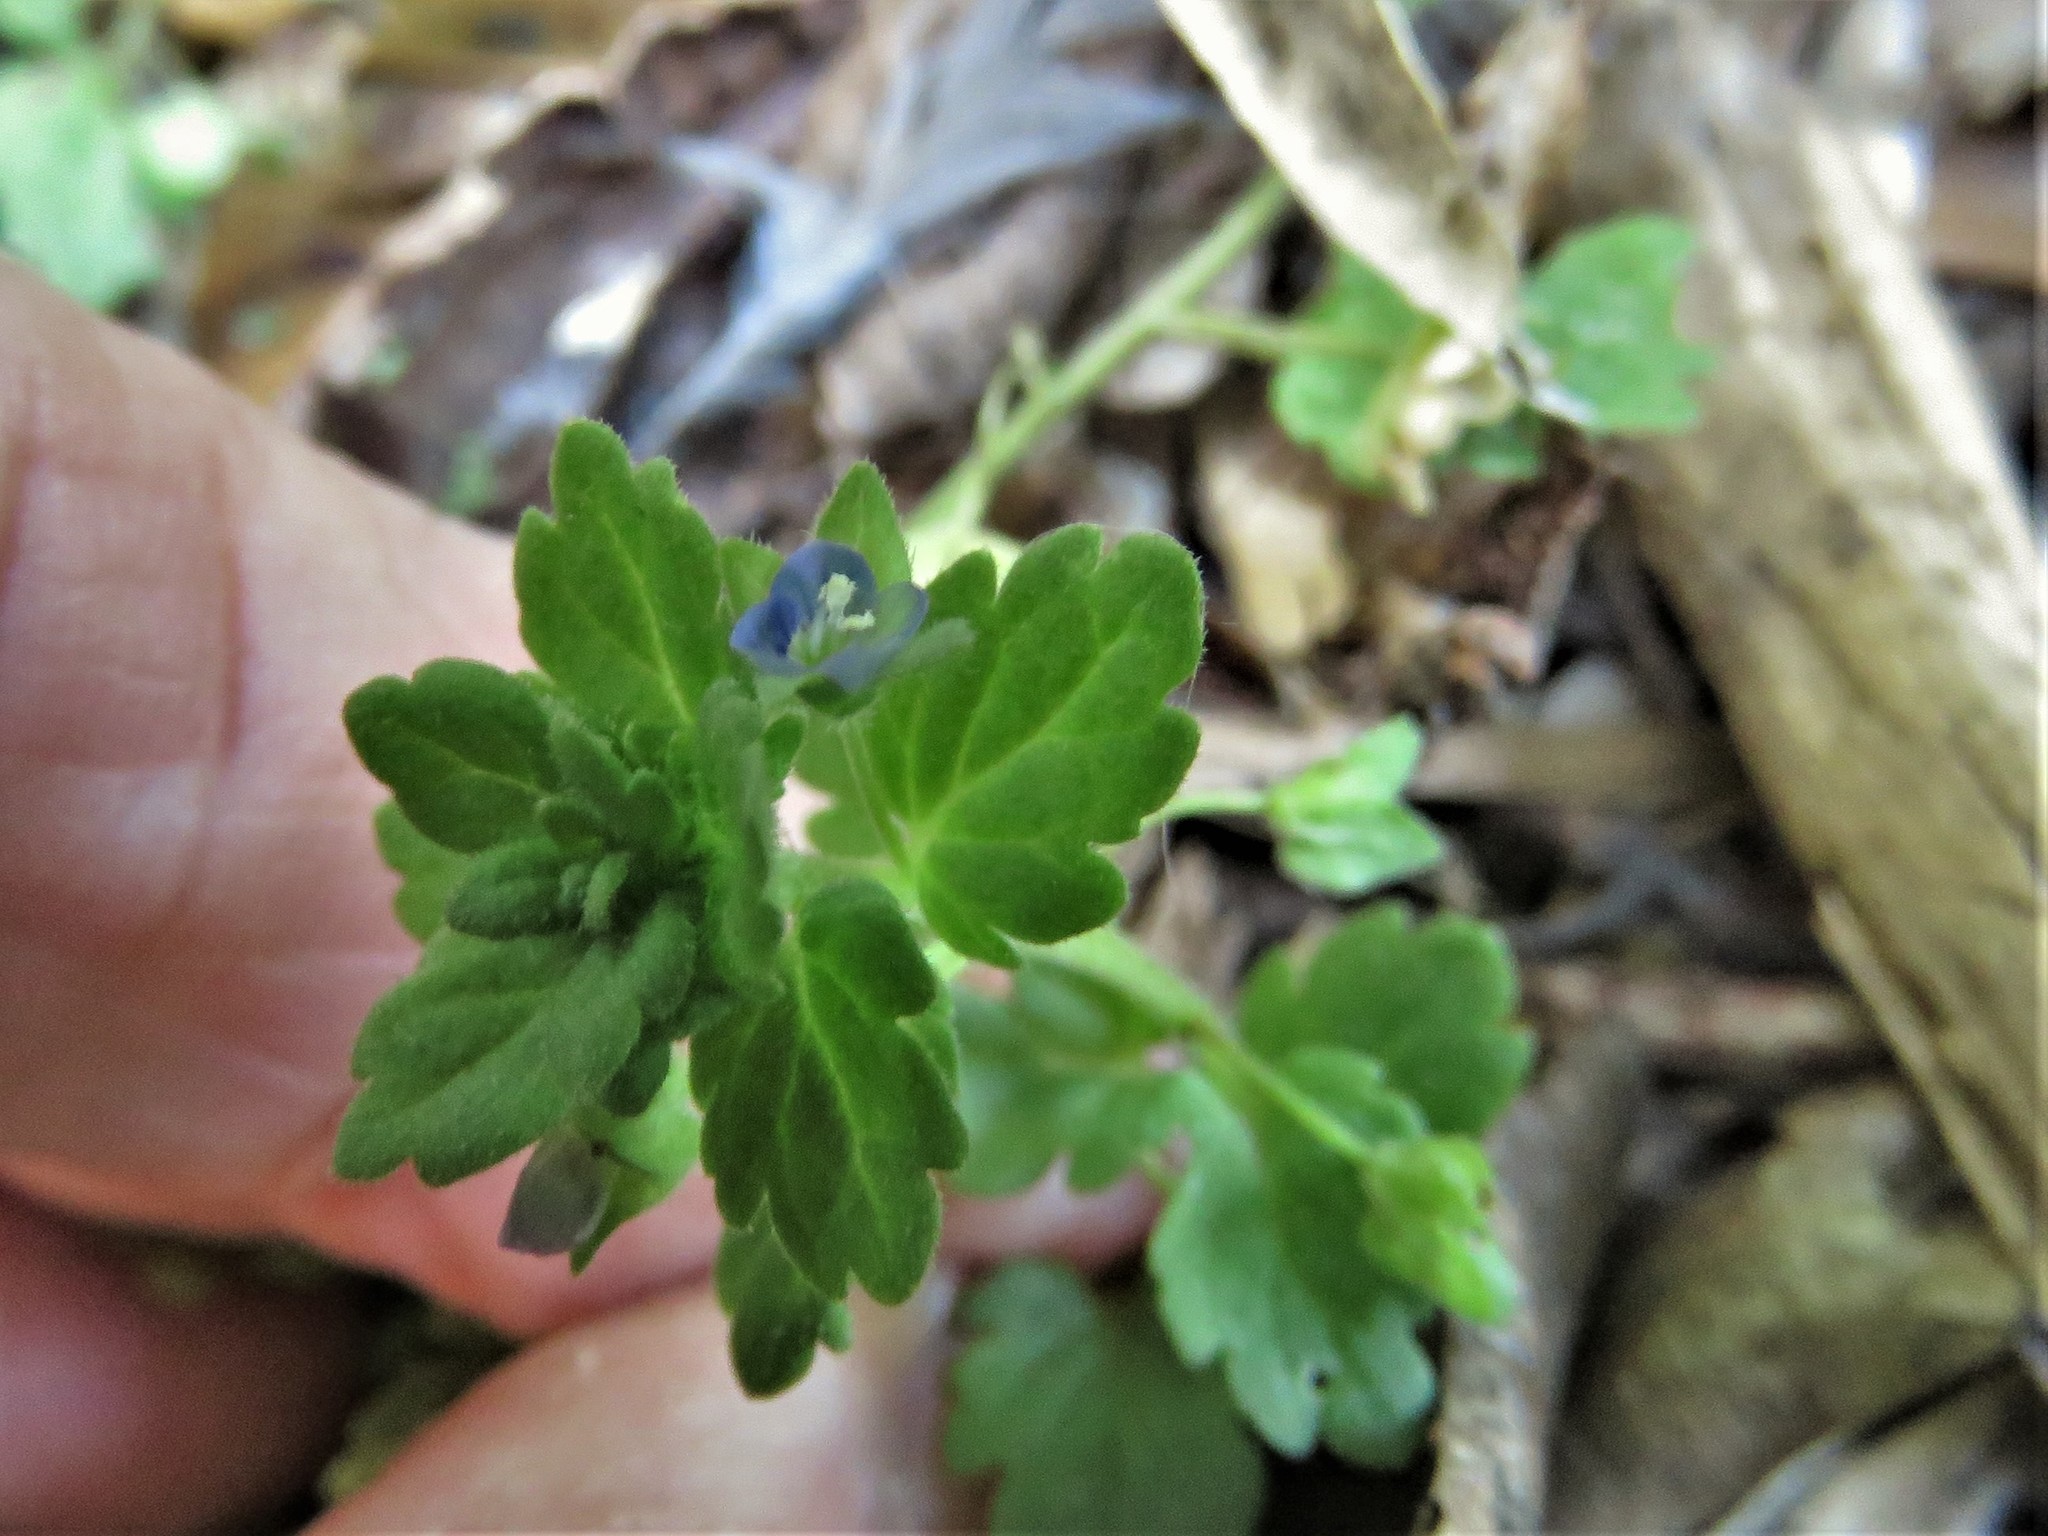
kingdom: Plantae
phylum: Tracheophyta
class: Magnoliopsida
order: Lamiales
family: Plantaginaceae
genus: Veronica
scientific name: Veronica polita
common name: Grey field-speedwell
